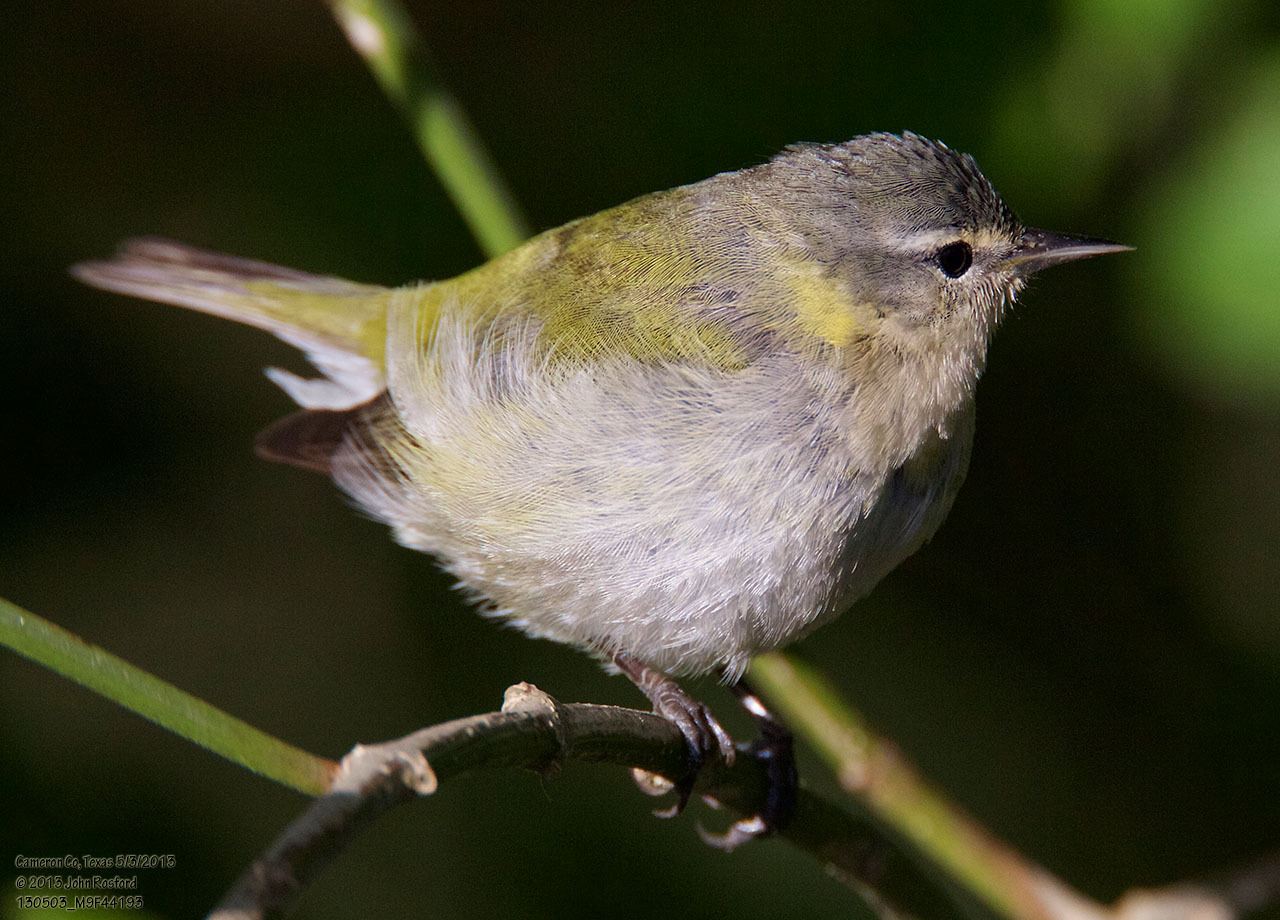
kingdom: Animalia
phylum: Chordata
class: Aves
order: Passeriformes
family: Parulidae
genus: Leiothlypis
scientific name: Leiothlypis peregrina
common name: Tennessee warbler
